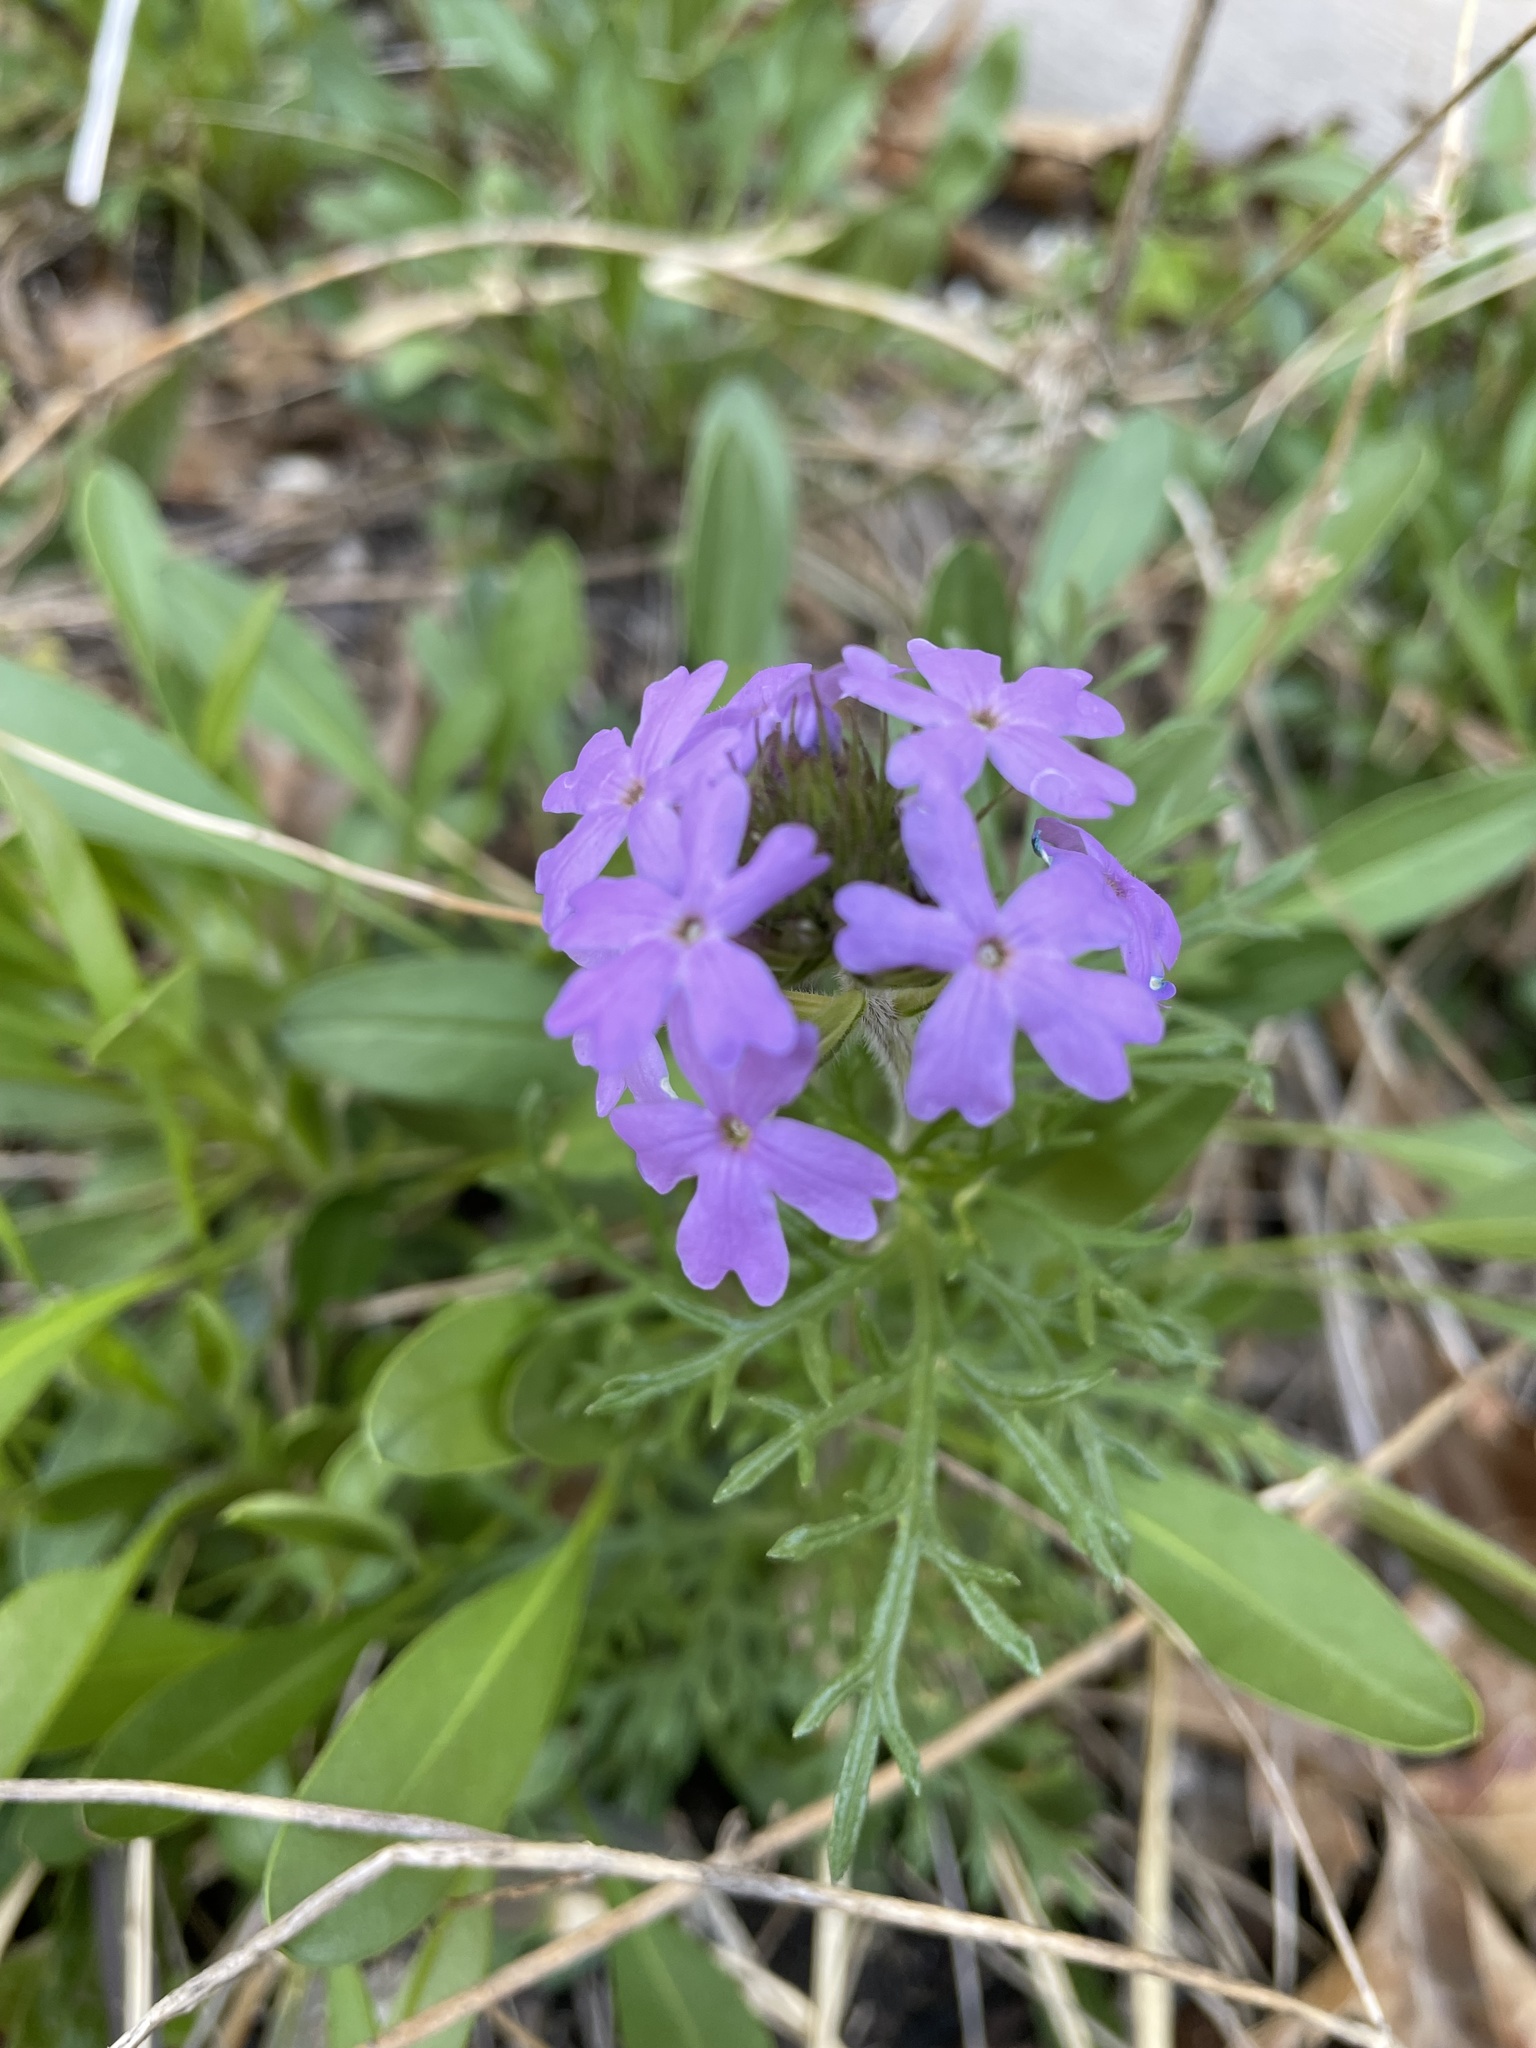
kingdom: Plantae
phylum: Tracheophyta
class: Magnoliopsida
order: Lamiales
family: Verbenaceae
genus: Verbena
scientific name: Verbena bipinnatifida
